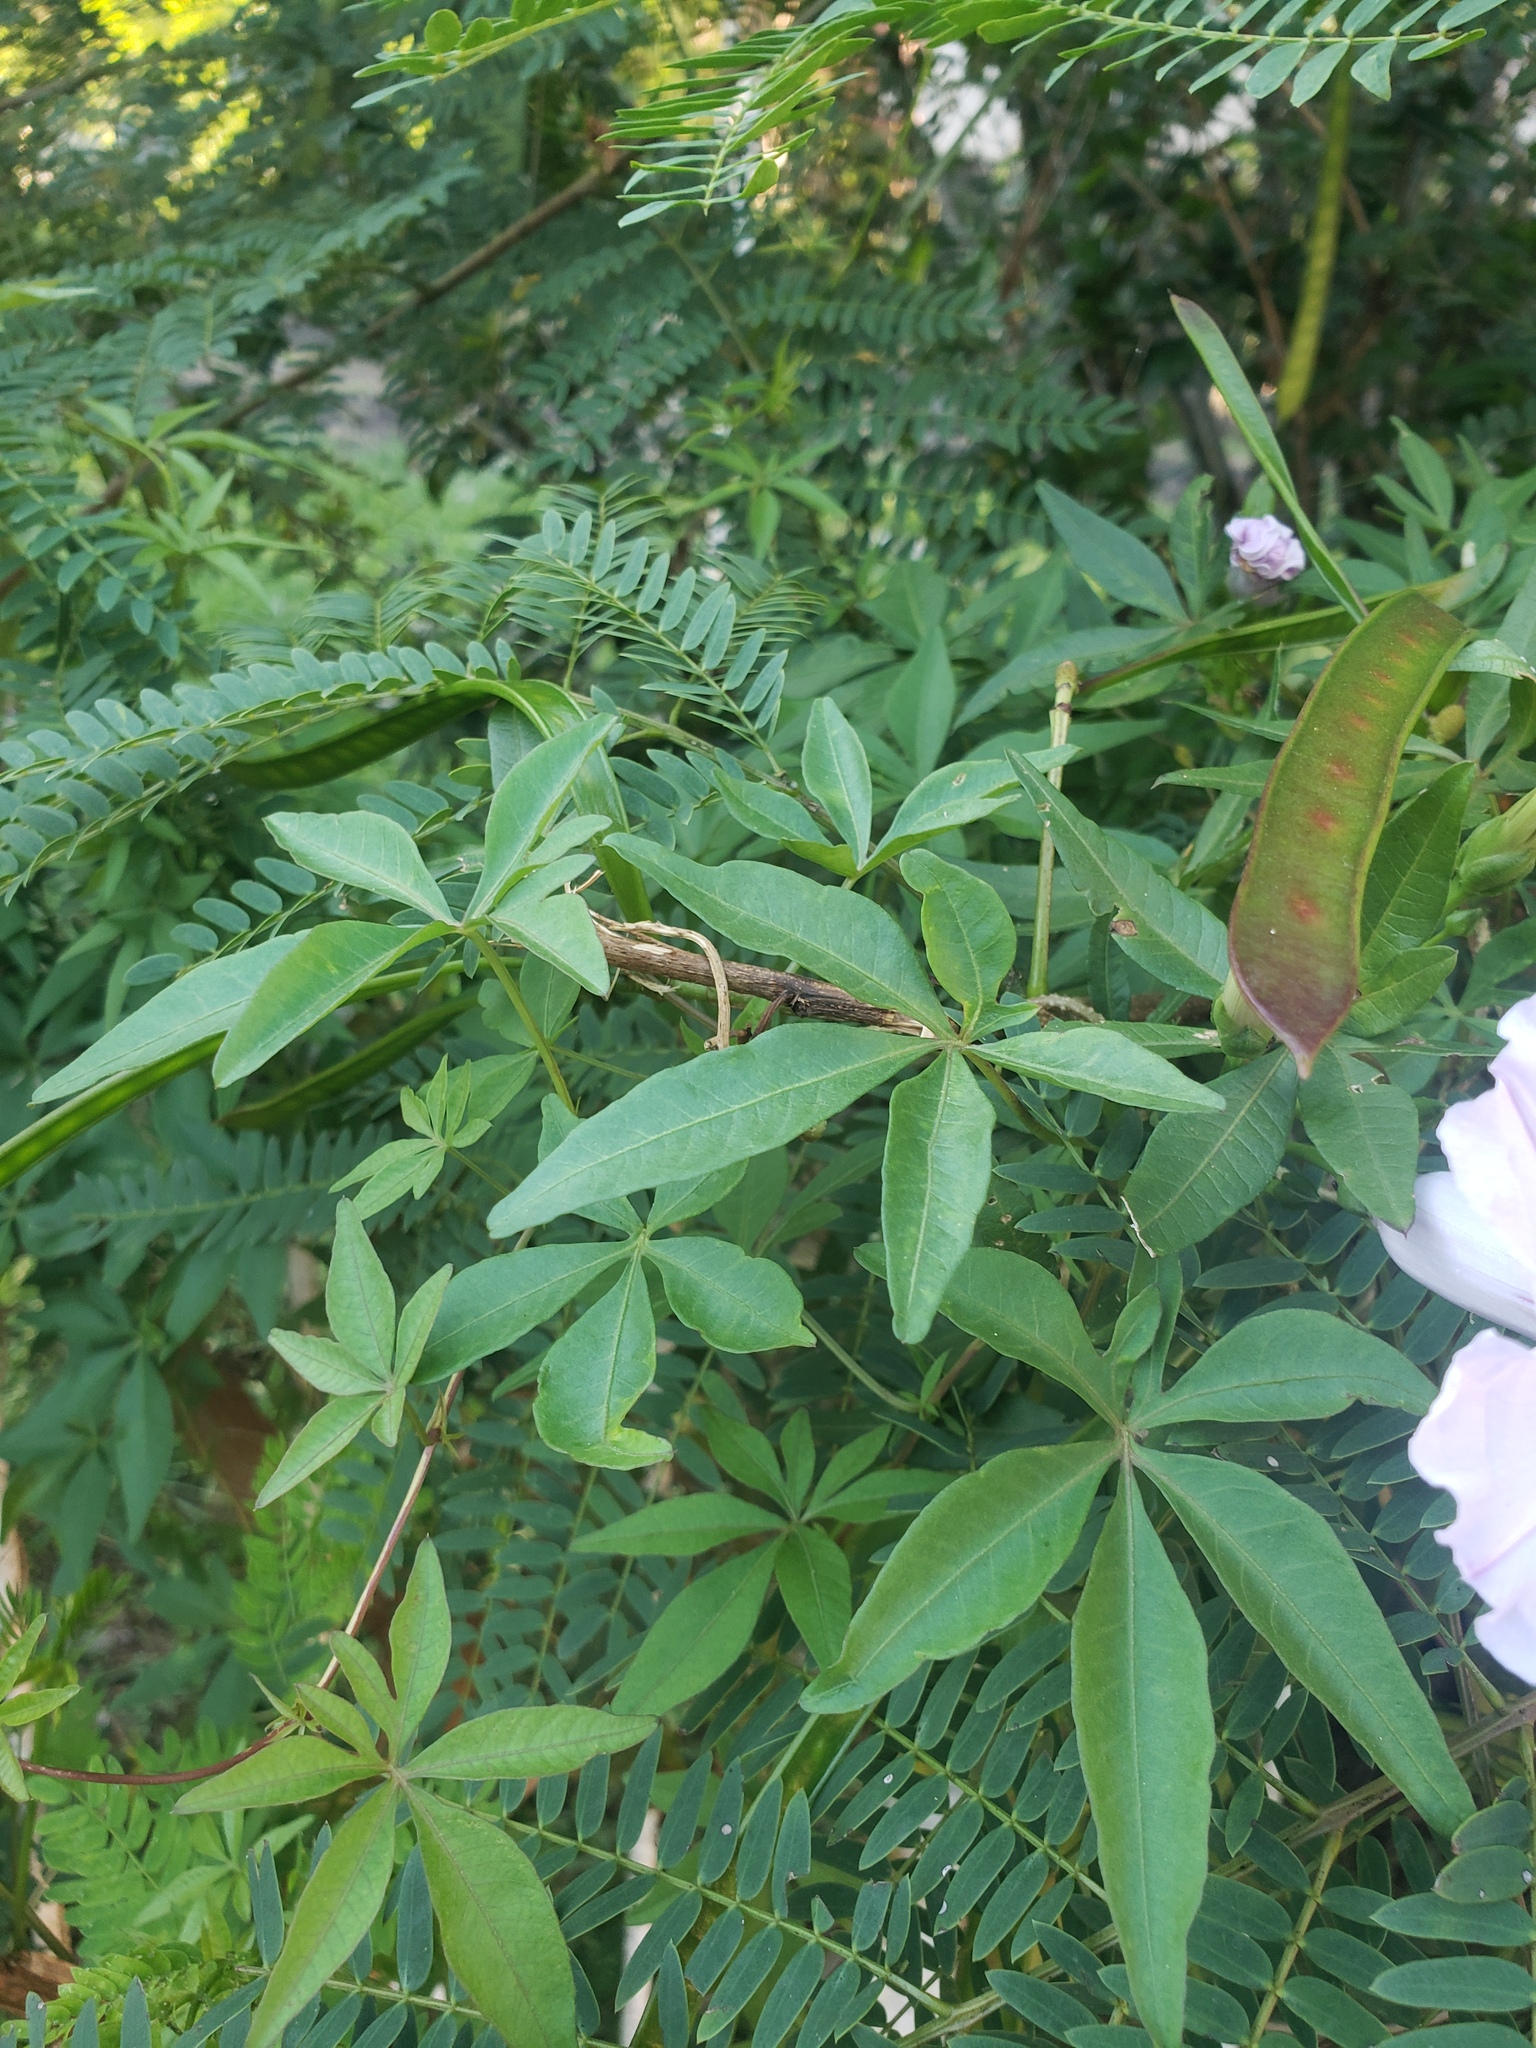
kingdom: Plantae
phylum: Tracheophyta
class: Magnoliopsida
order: Solanales
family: Convolvulaceae
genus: Ipomoea
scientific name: Ipomoea cairica
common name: Mile a minute vine
